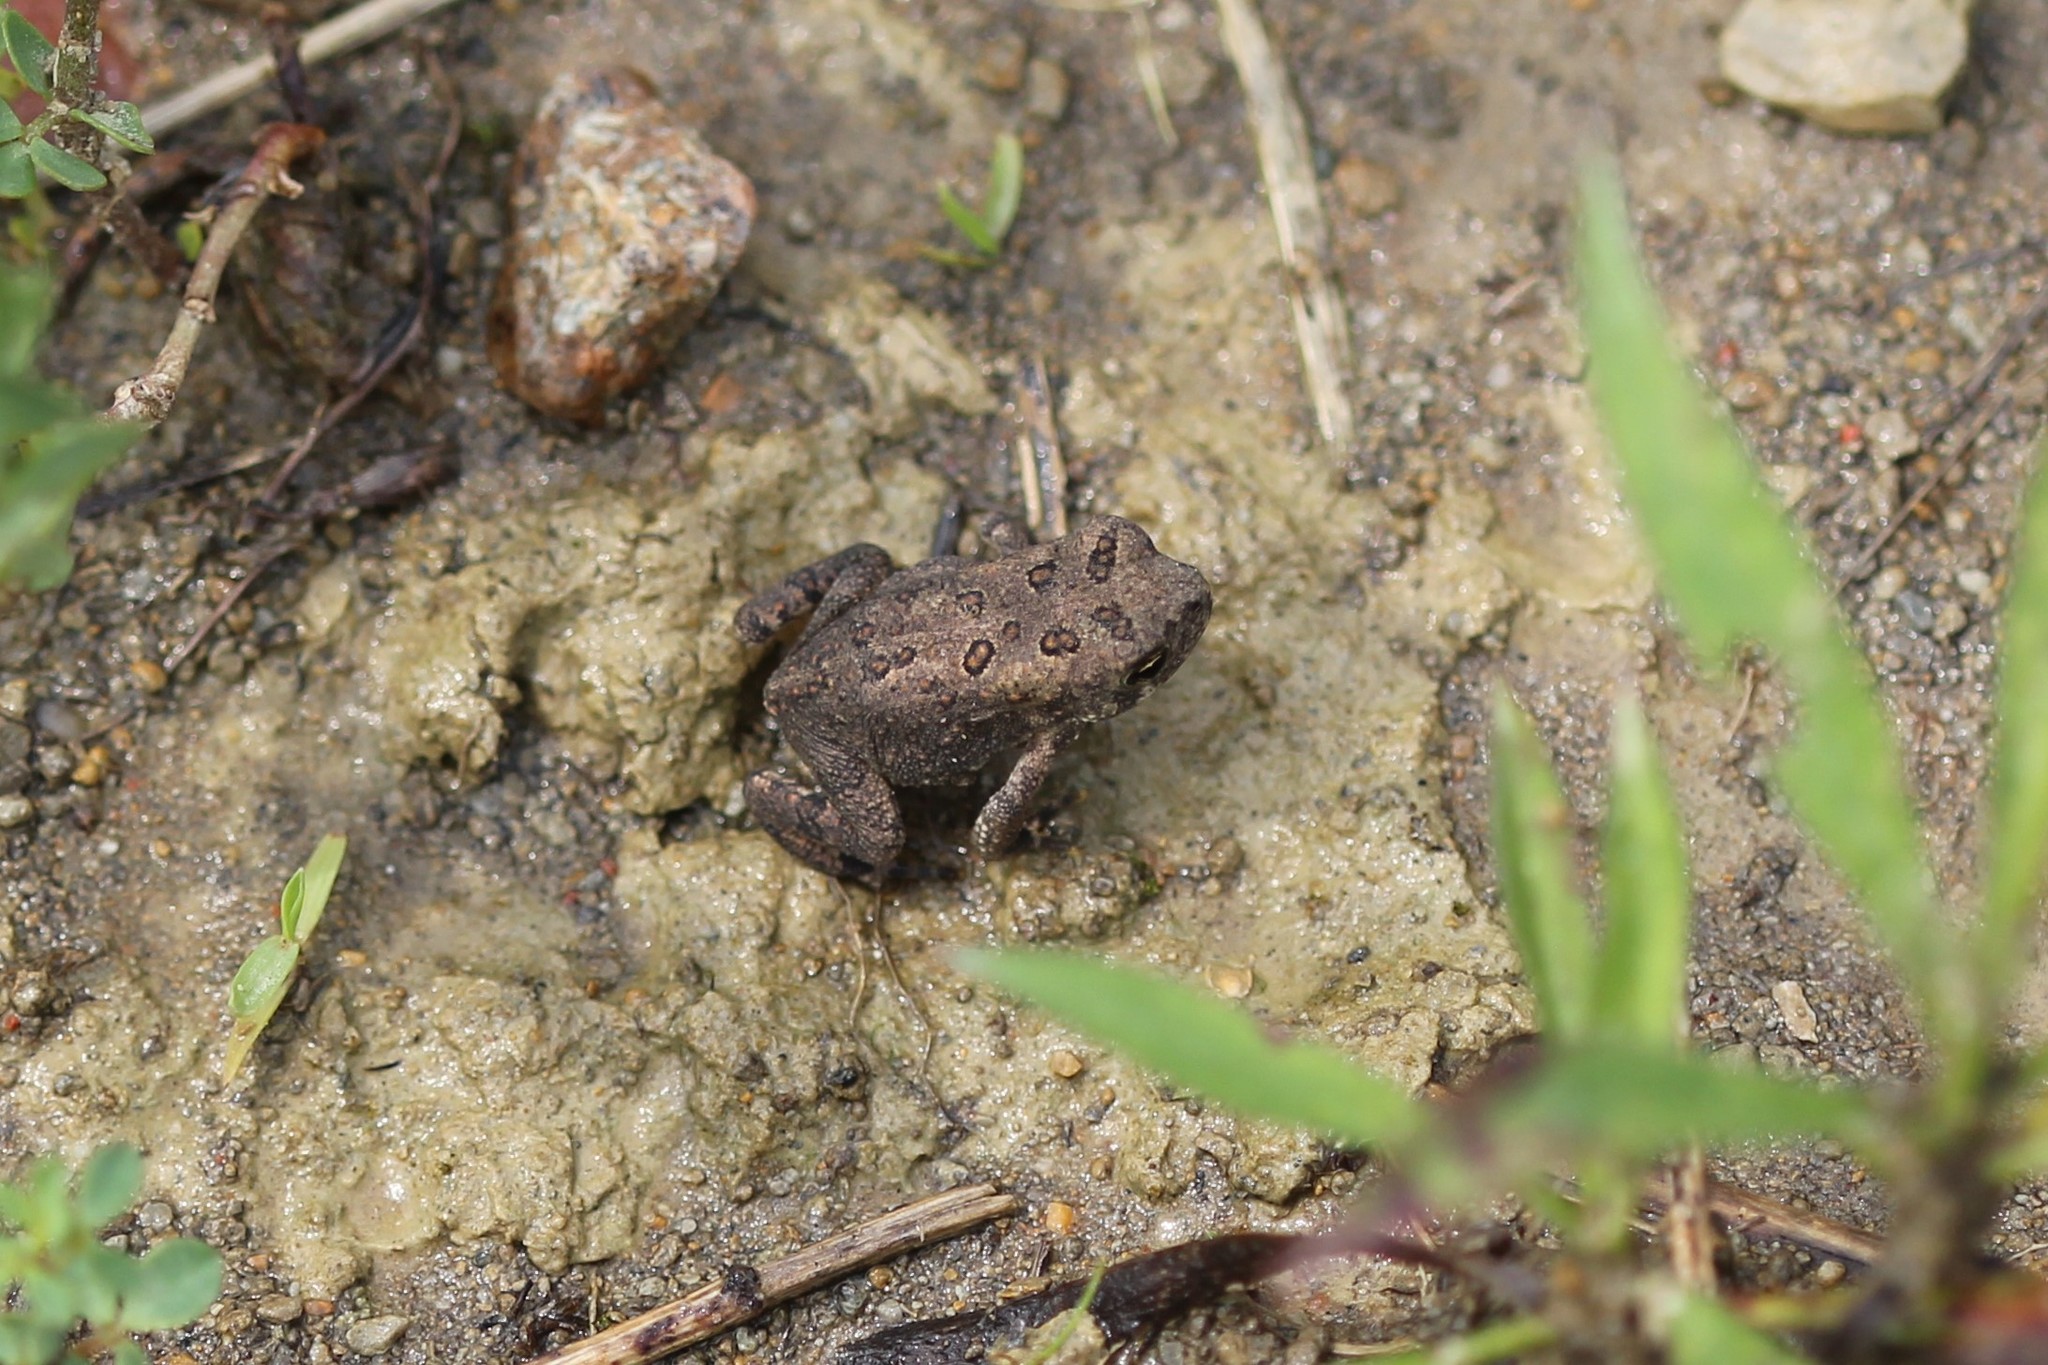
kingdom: Animalia
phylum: Chordata
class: Amphibia
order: Anura
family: Bufonidae
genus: Anaxyrus
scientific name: Anaxyrus americanus
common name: American toad
